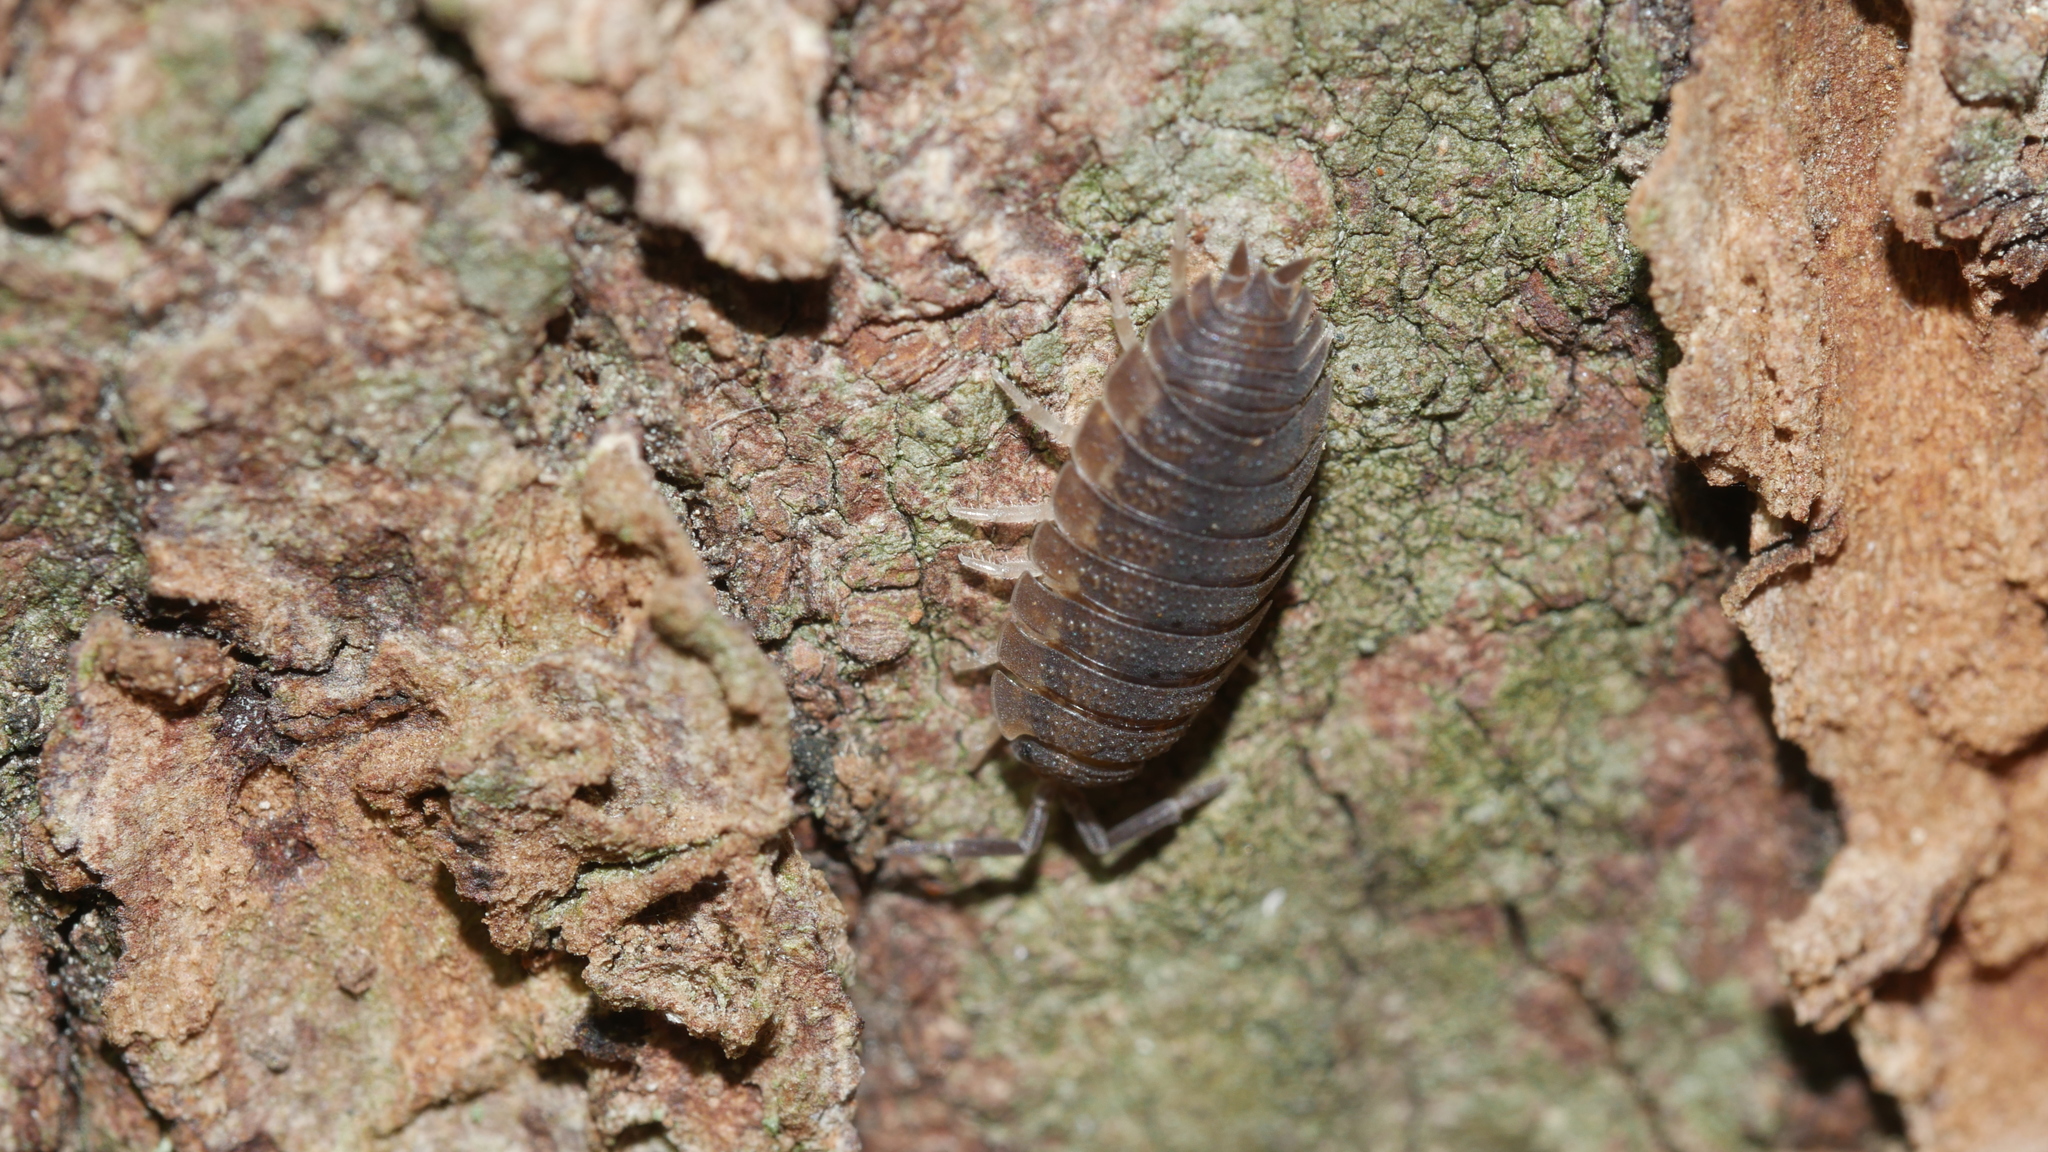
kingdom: Animalia
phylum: Arthropoda
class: Malacostraca
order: Isopoda
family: Porcellionidae
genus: Porcellio
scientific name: Porcellio scaber
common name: Common rough woodlouse
